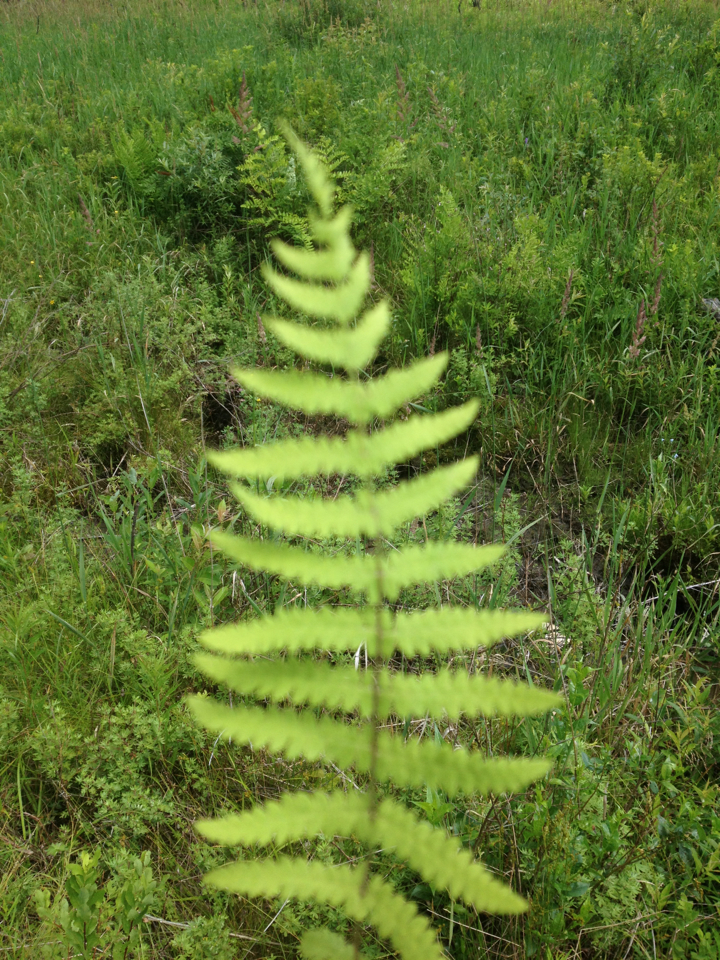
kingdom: Plantae
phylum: Tracheophyta
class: Polypodiopsida
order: Polypodiales
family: Thelypteridaceae
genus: Thelypteris
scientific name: Thelypteris palustris
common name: Marsh fern
